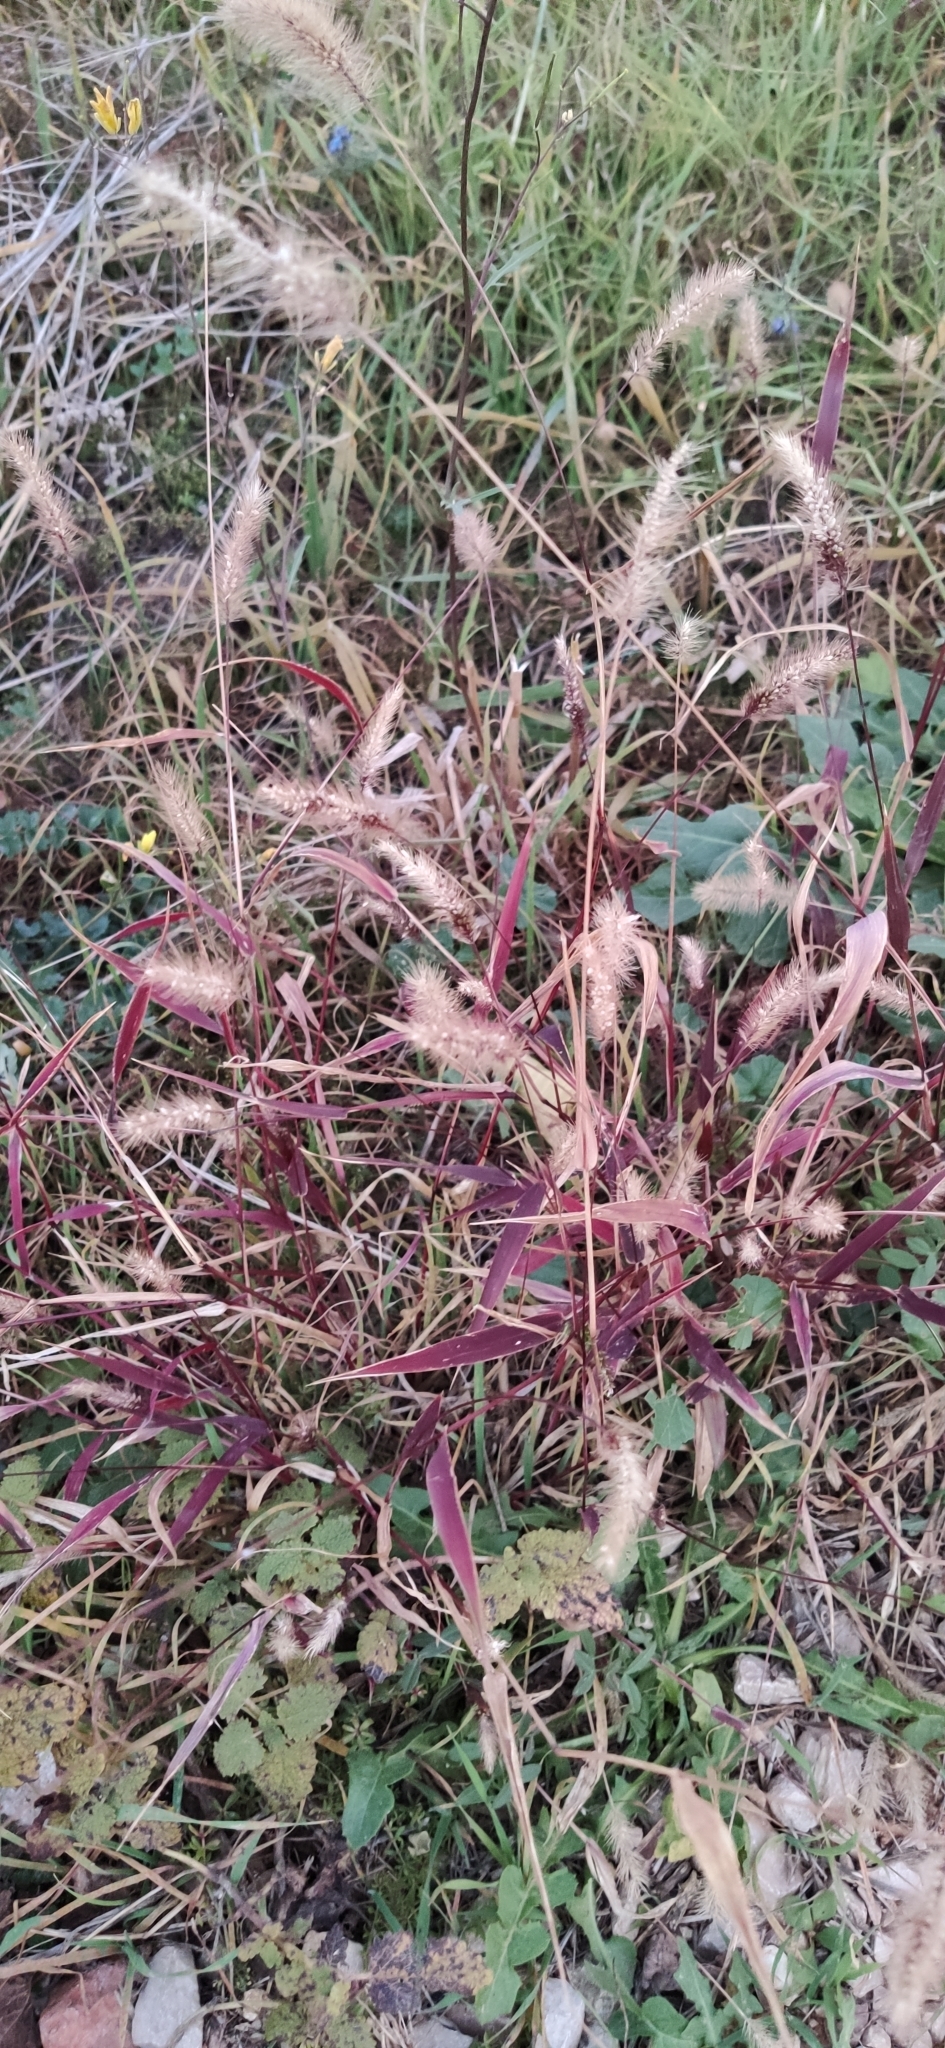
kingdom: Plantae
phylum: Tracheophyta
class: Liliopsida
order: Poales
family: Poaceae
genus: Setaria
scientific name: Setaria viridis
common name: Green bristlegrass
